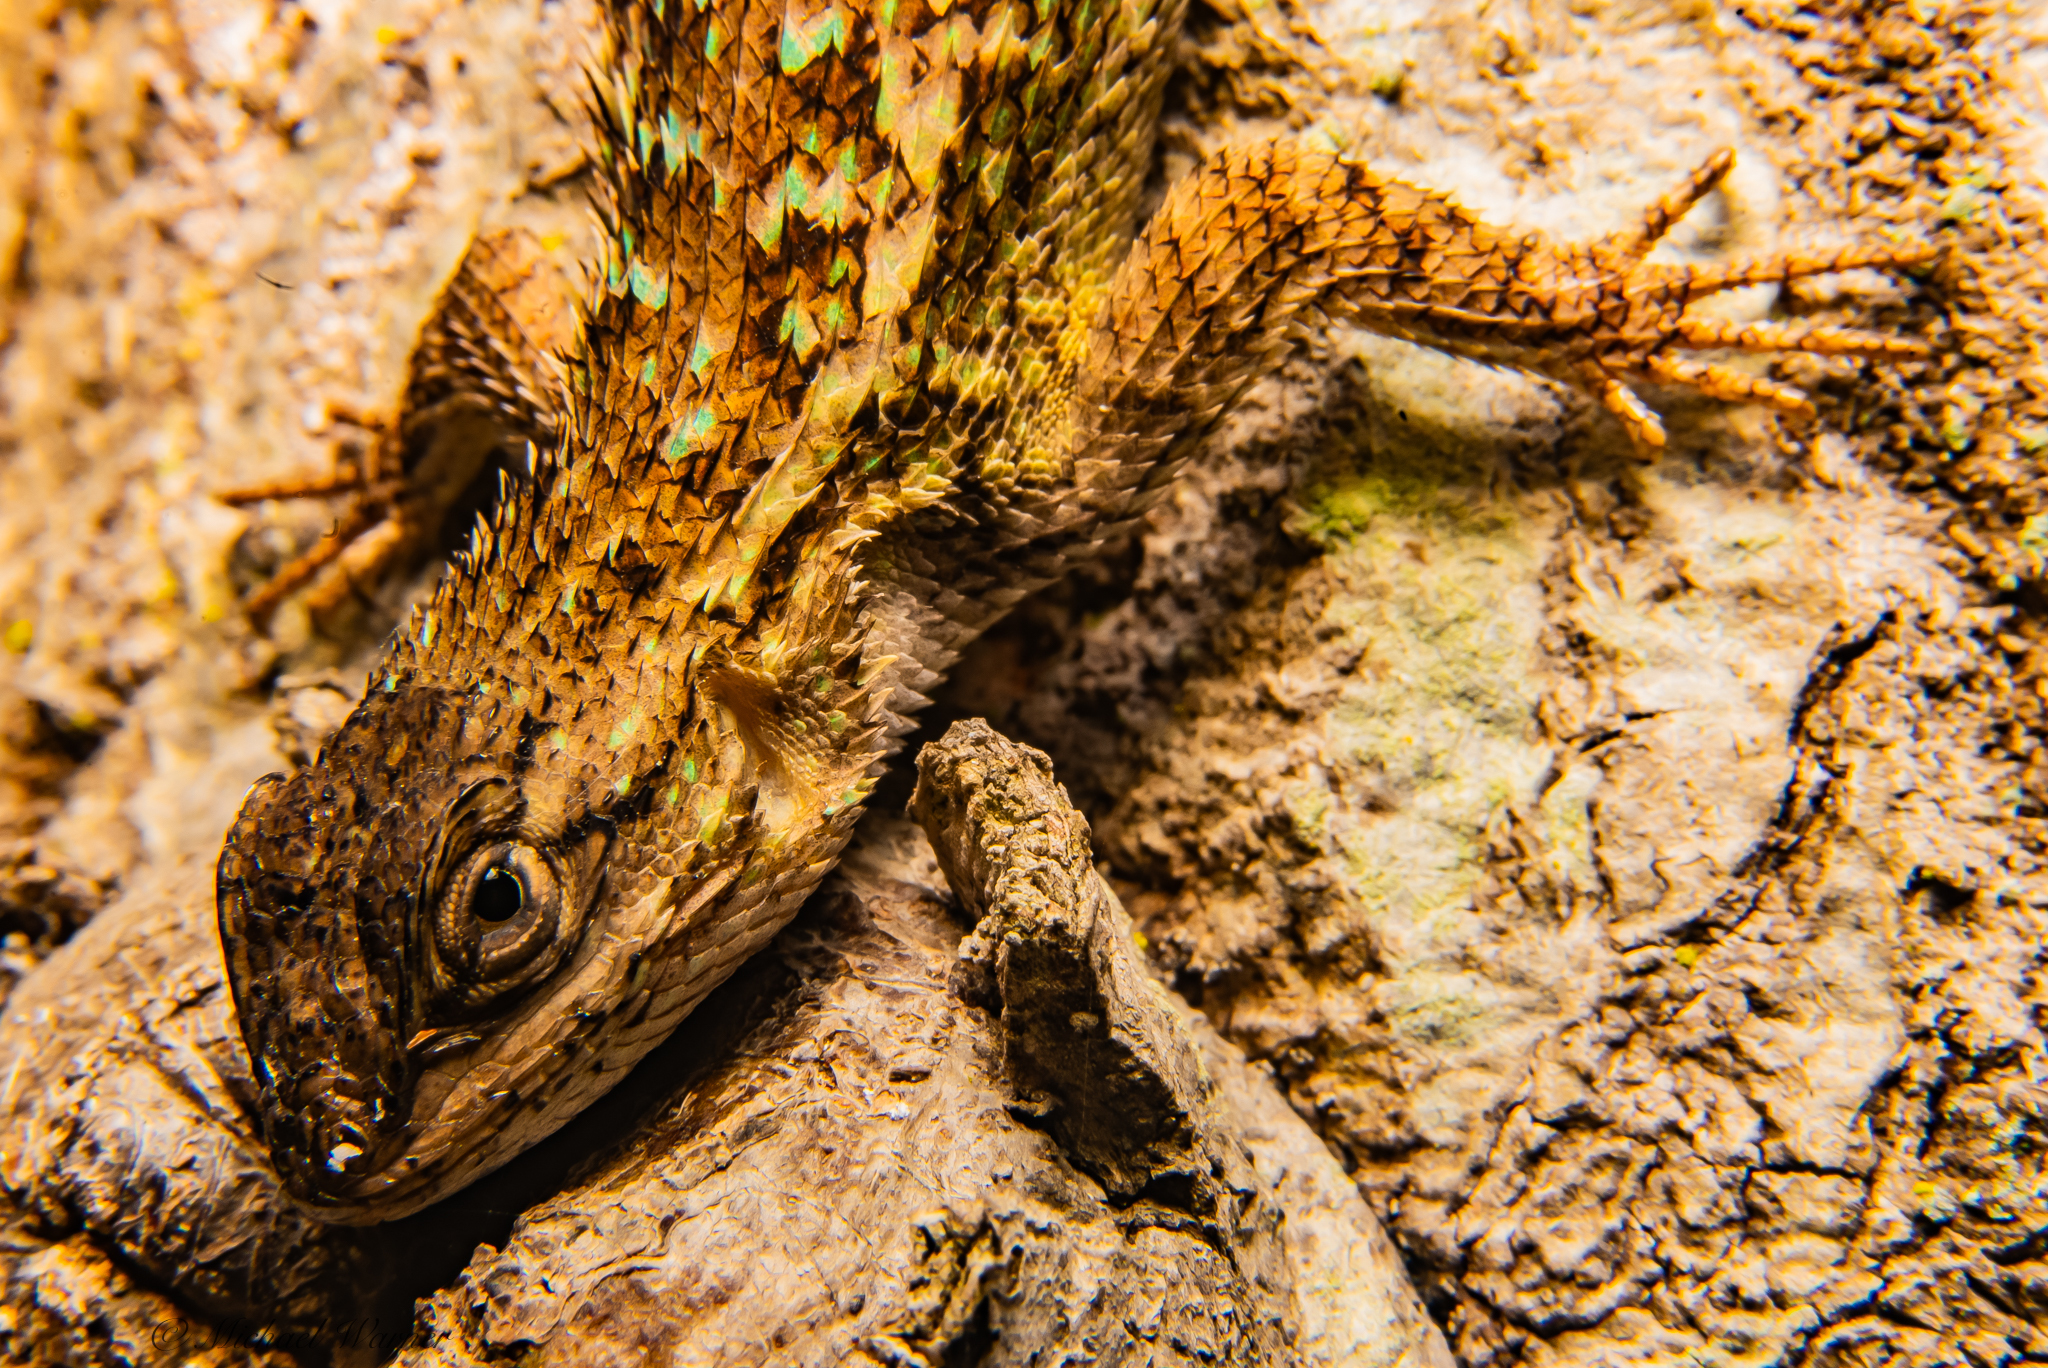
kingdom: Animalia
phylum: Chordata
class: Squamata
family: Phrynosomatidae
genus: Sceloporus
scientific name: Sceloporus occidentalis
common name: Western fence lizard
